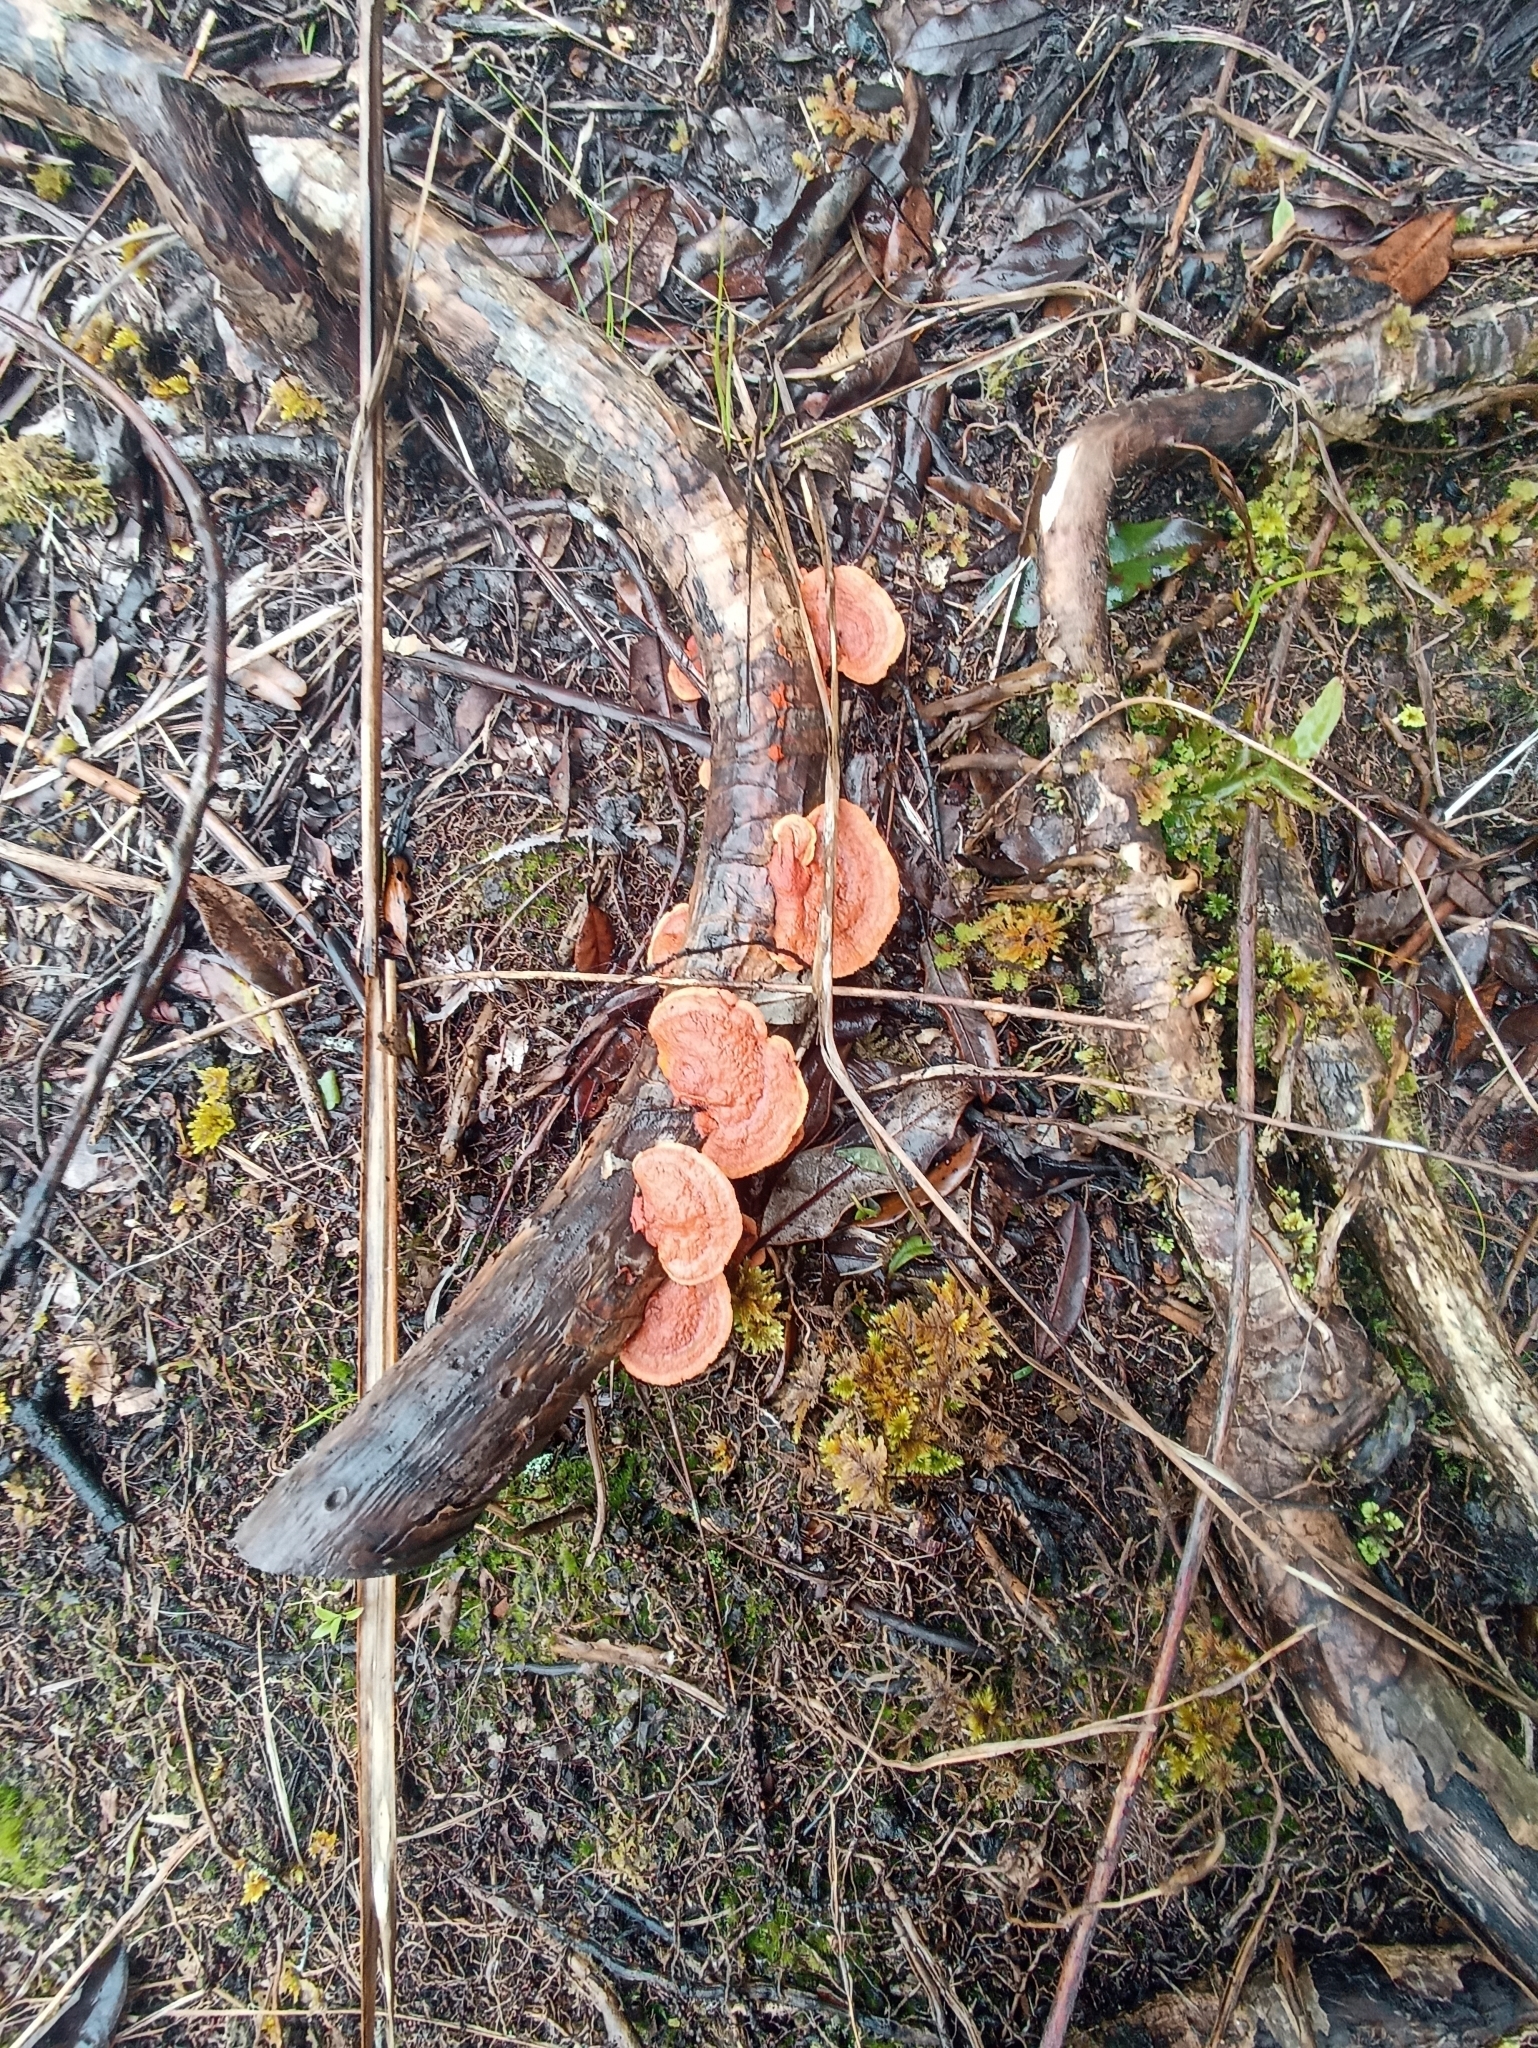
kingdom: Fungi
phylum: Basidiomycota
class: Agaricomycetes
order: Polyporales
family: Polyporaceae
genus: Trametes
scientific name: Trametes coccinea
